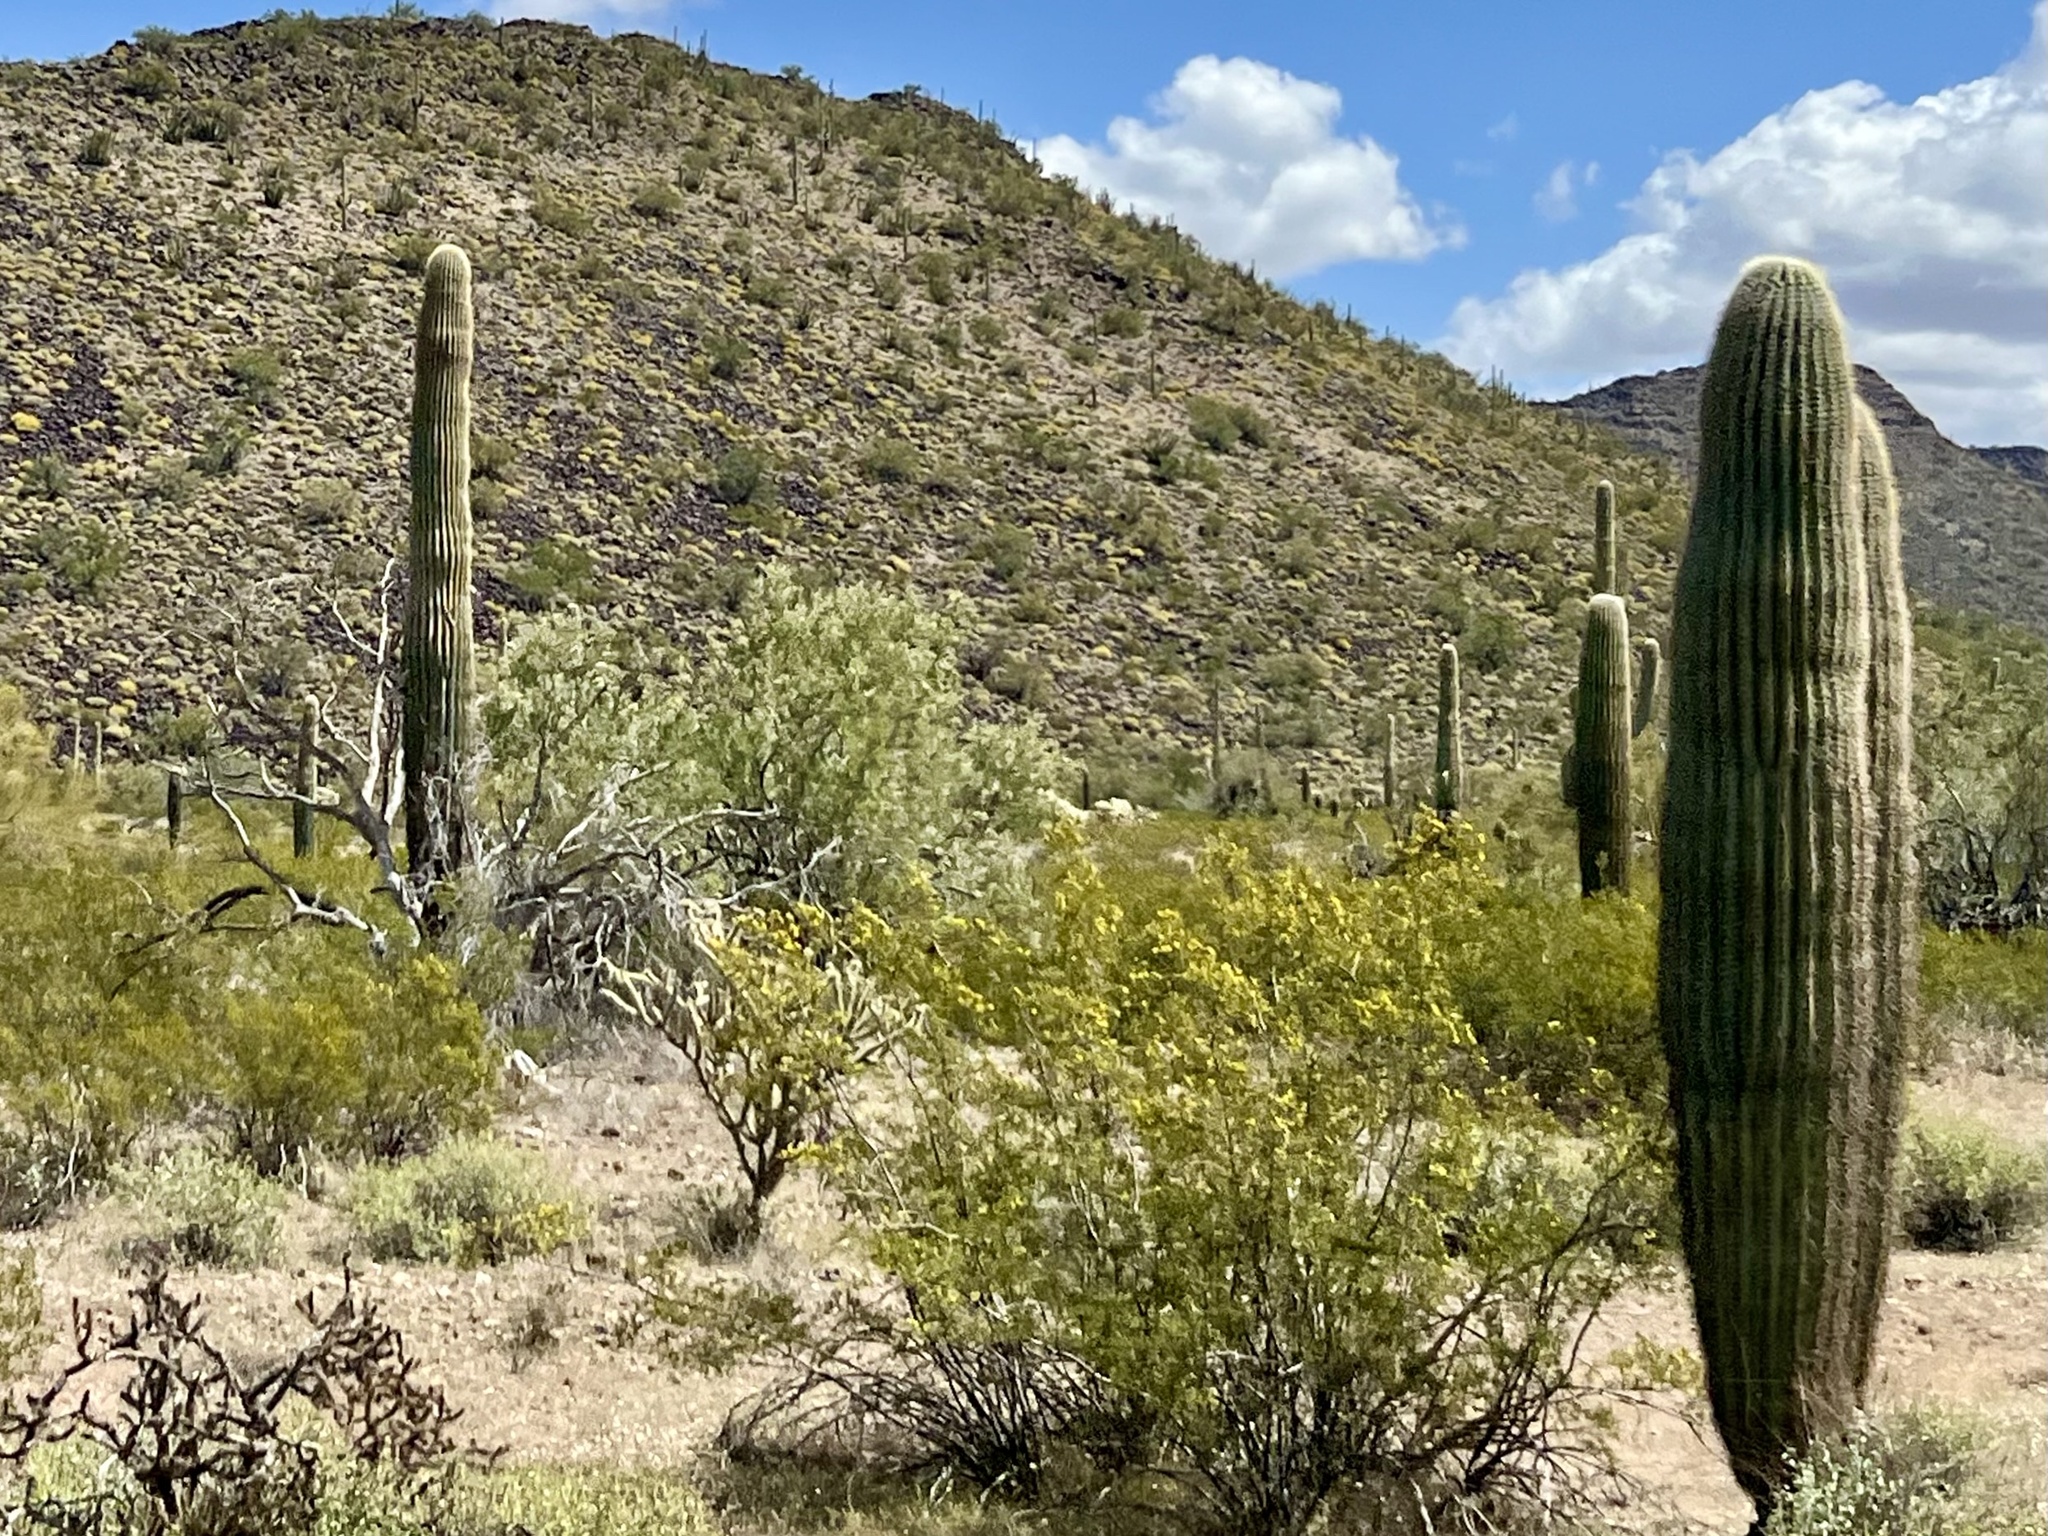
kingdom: Plantae
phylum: Tracheophyta
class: Magnoliopsida
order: Caryophyllales
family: Cactaceae
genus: Carnegiea
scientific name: Carnegiea gigantea
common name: Saguaro
